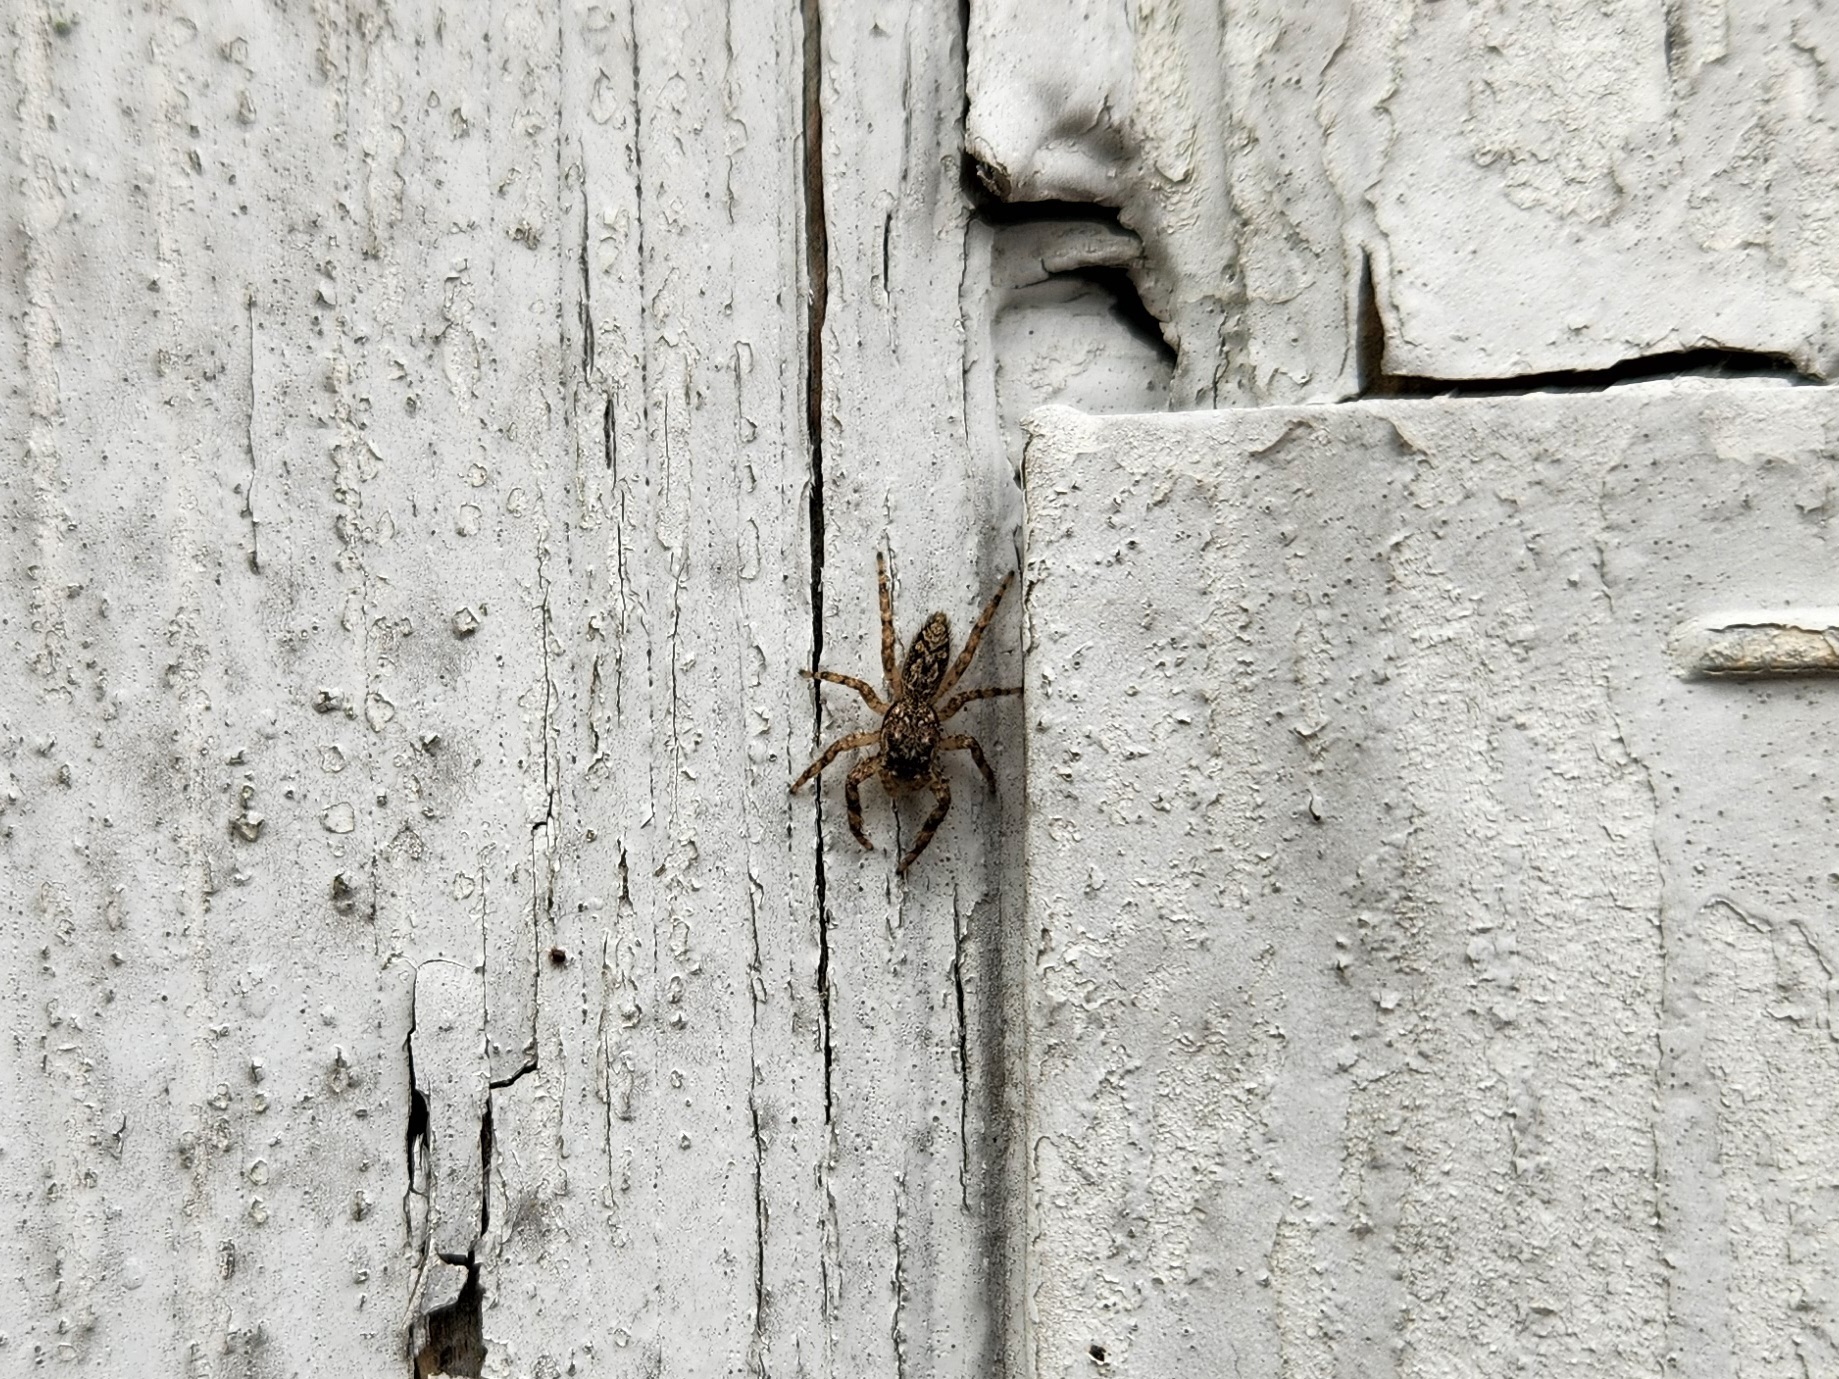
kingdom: Animalia
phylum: Arthropoda
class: Arachnida
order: Araneae
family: Salticidae
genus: Platycryptus
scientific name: Platycryptus undatus
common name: Tan jumping spider
